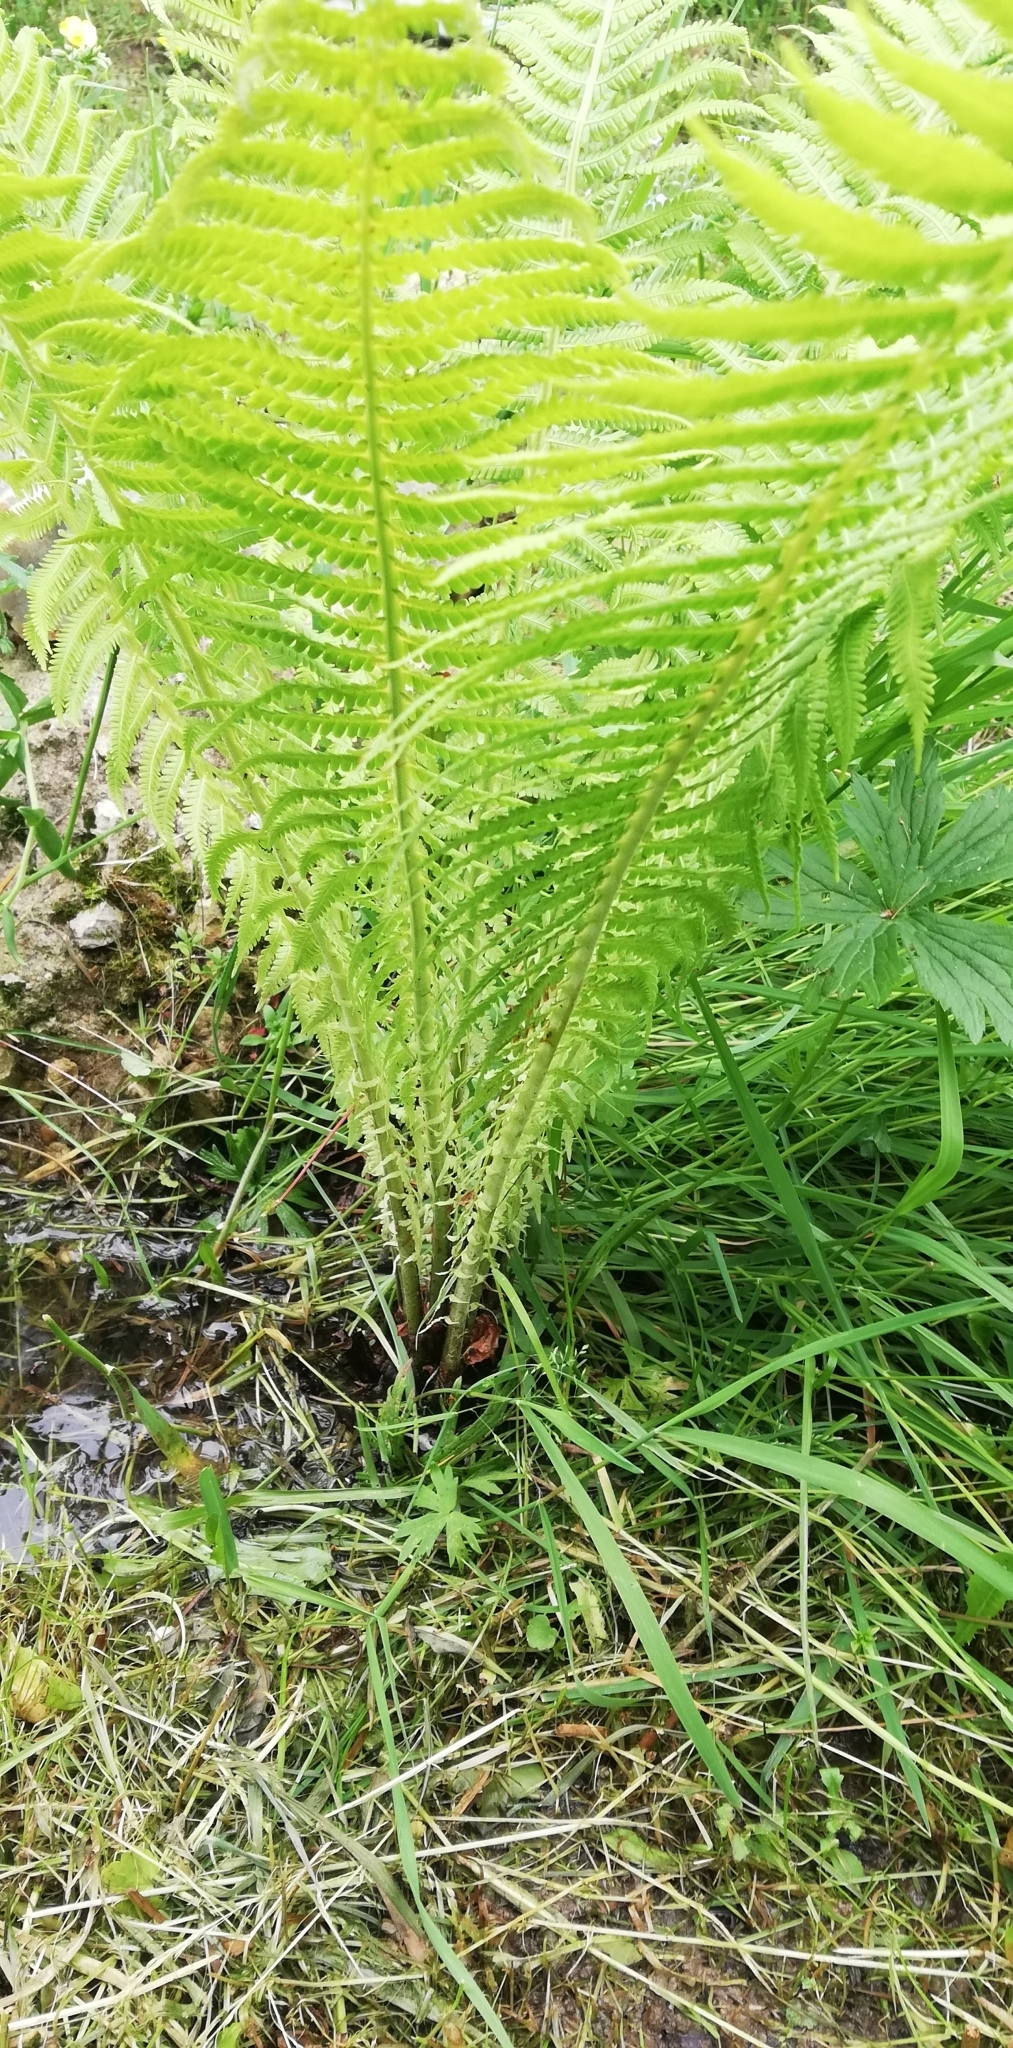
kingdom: Plantae
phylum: Tracheophyta
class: Polypodiopsida
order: Polypodiales
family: Onocleaceae
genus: Matteuccia
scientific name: Matteuccia struthiopteris
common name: Ostrich fern
